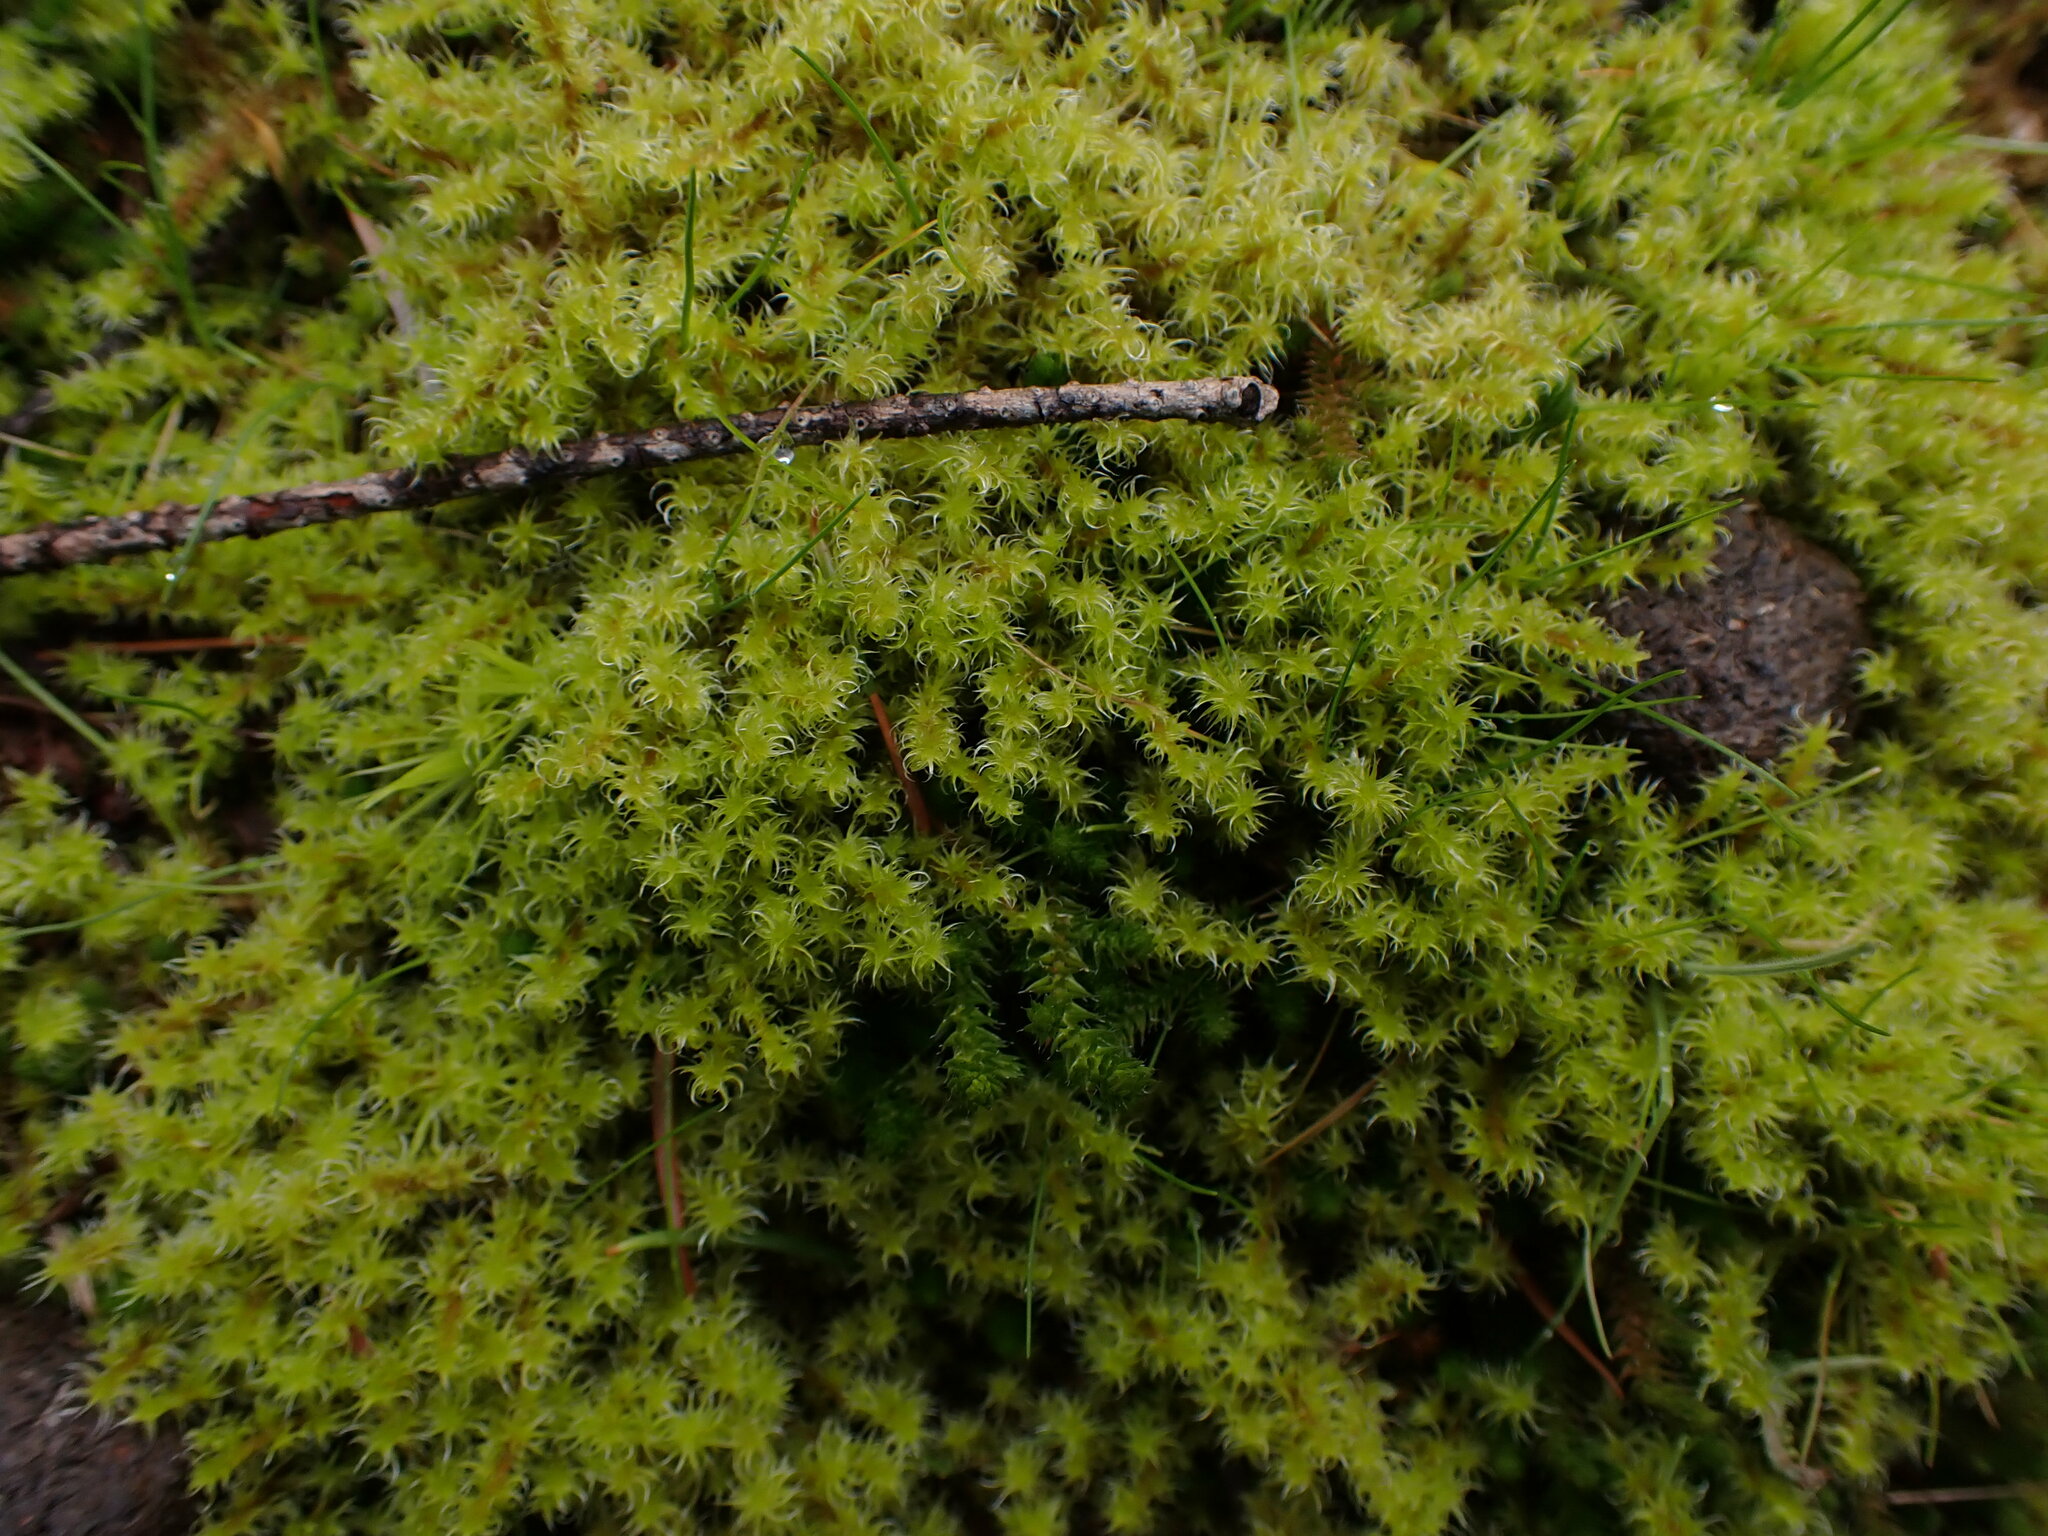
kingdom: Plantae
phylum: Bryophyta
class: Bryopsida
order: Grimmiales
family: Grimmiaceae
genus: Niphotrichum
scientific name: Niphotrichum elongatum
